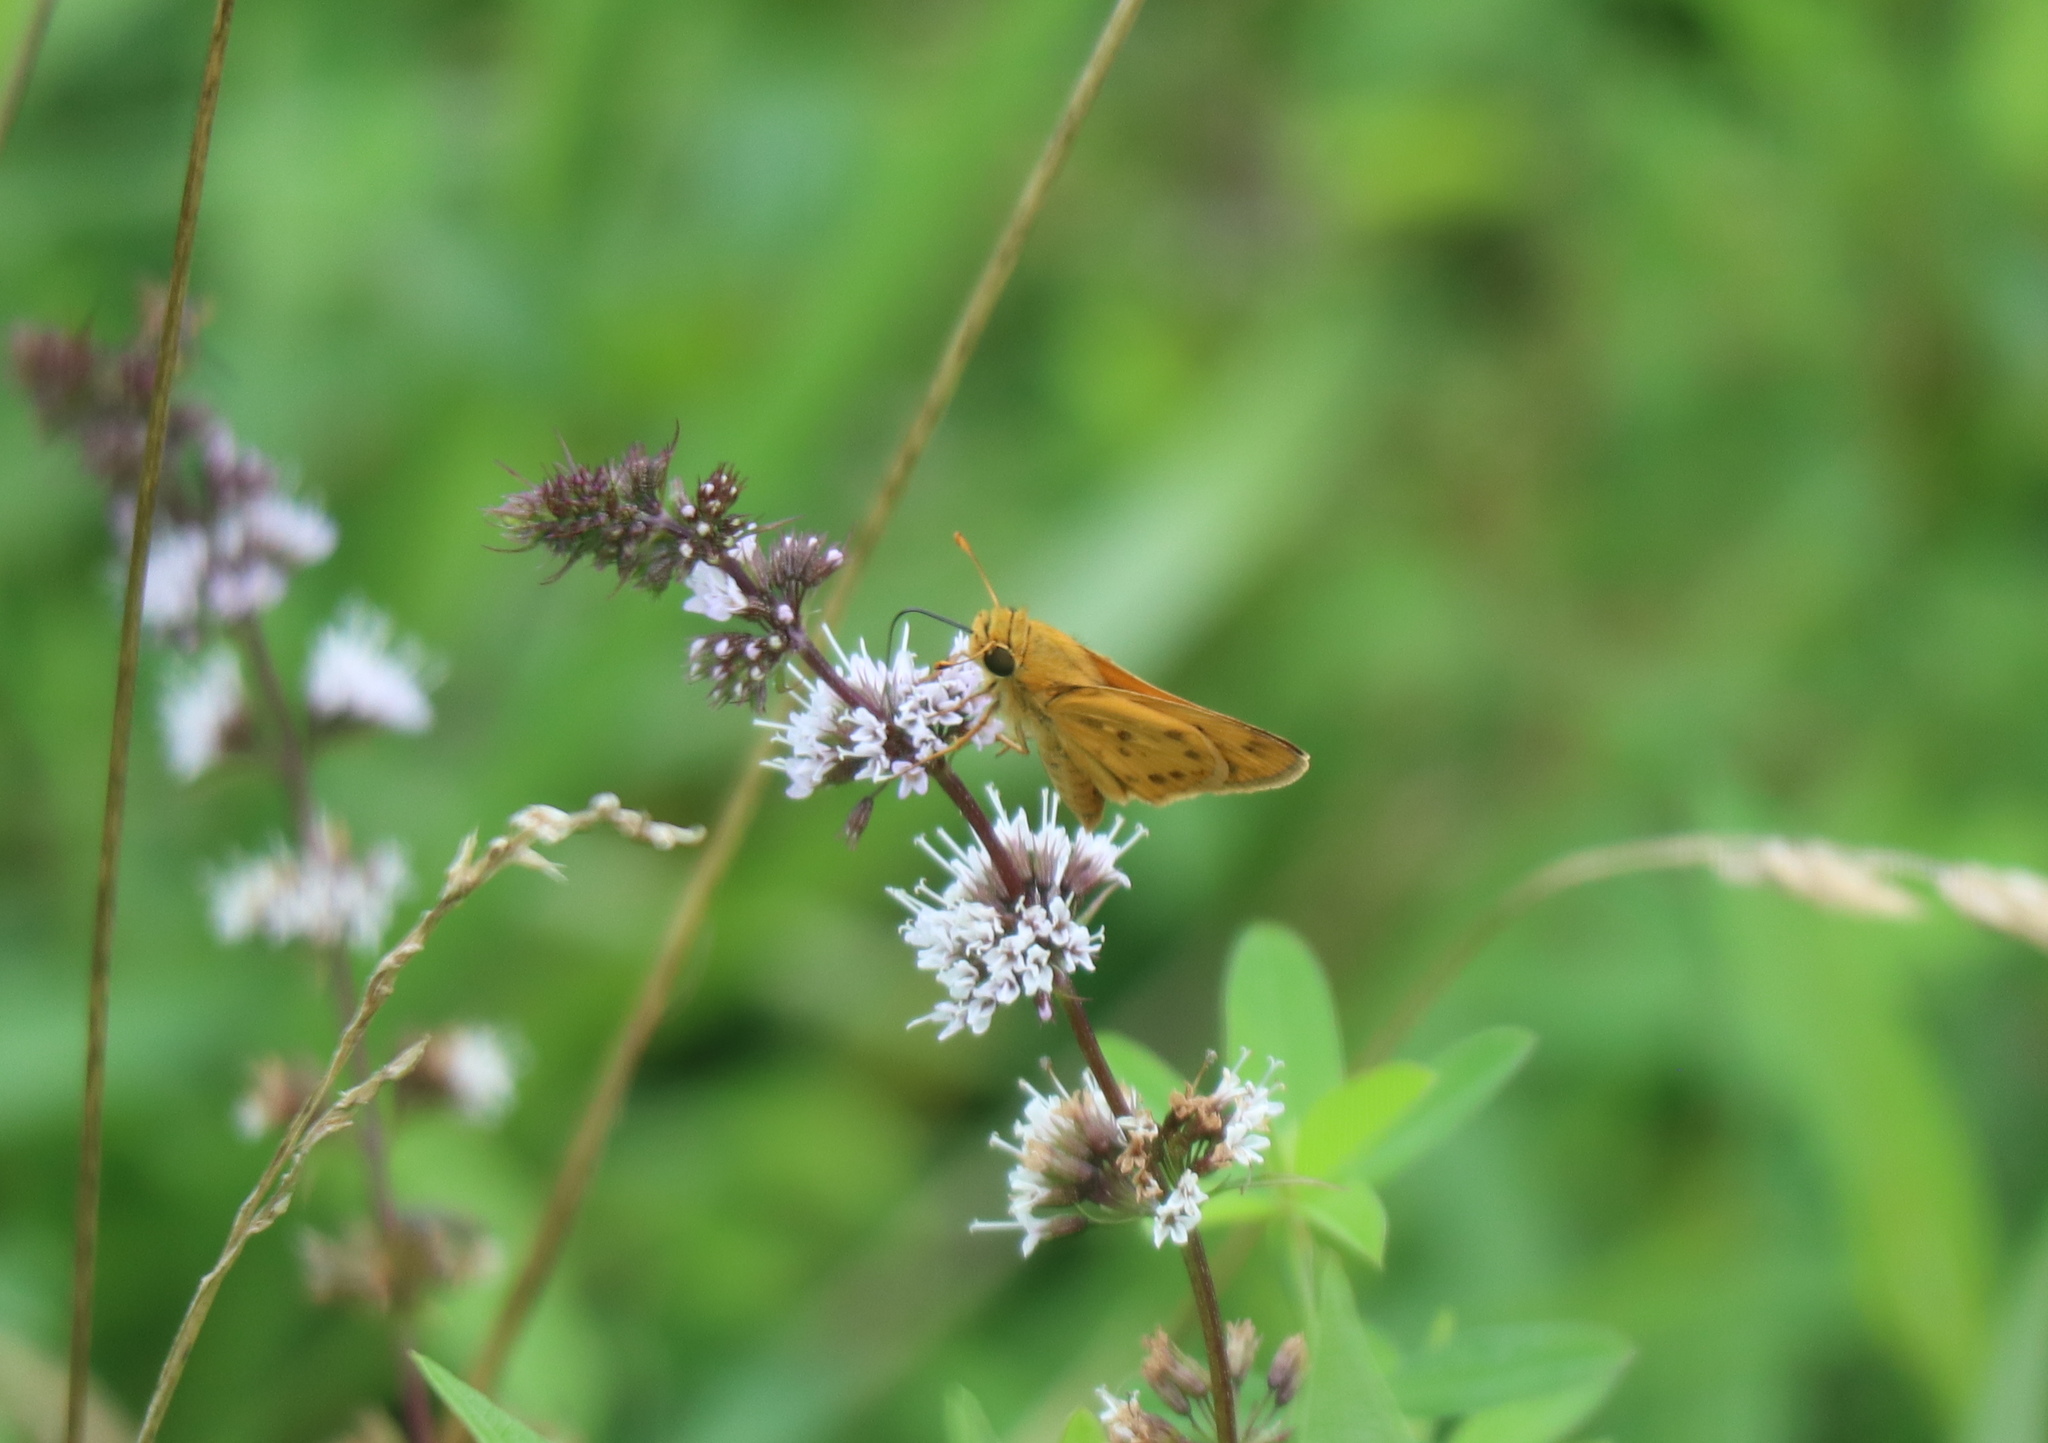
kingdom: Animalia
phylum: Arthropoda
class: Insecta
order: Lepidoptera
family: Hesperiidae
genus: Hylephila
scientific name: Hylephila phyleus
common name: Fiery skipper
